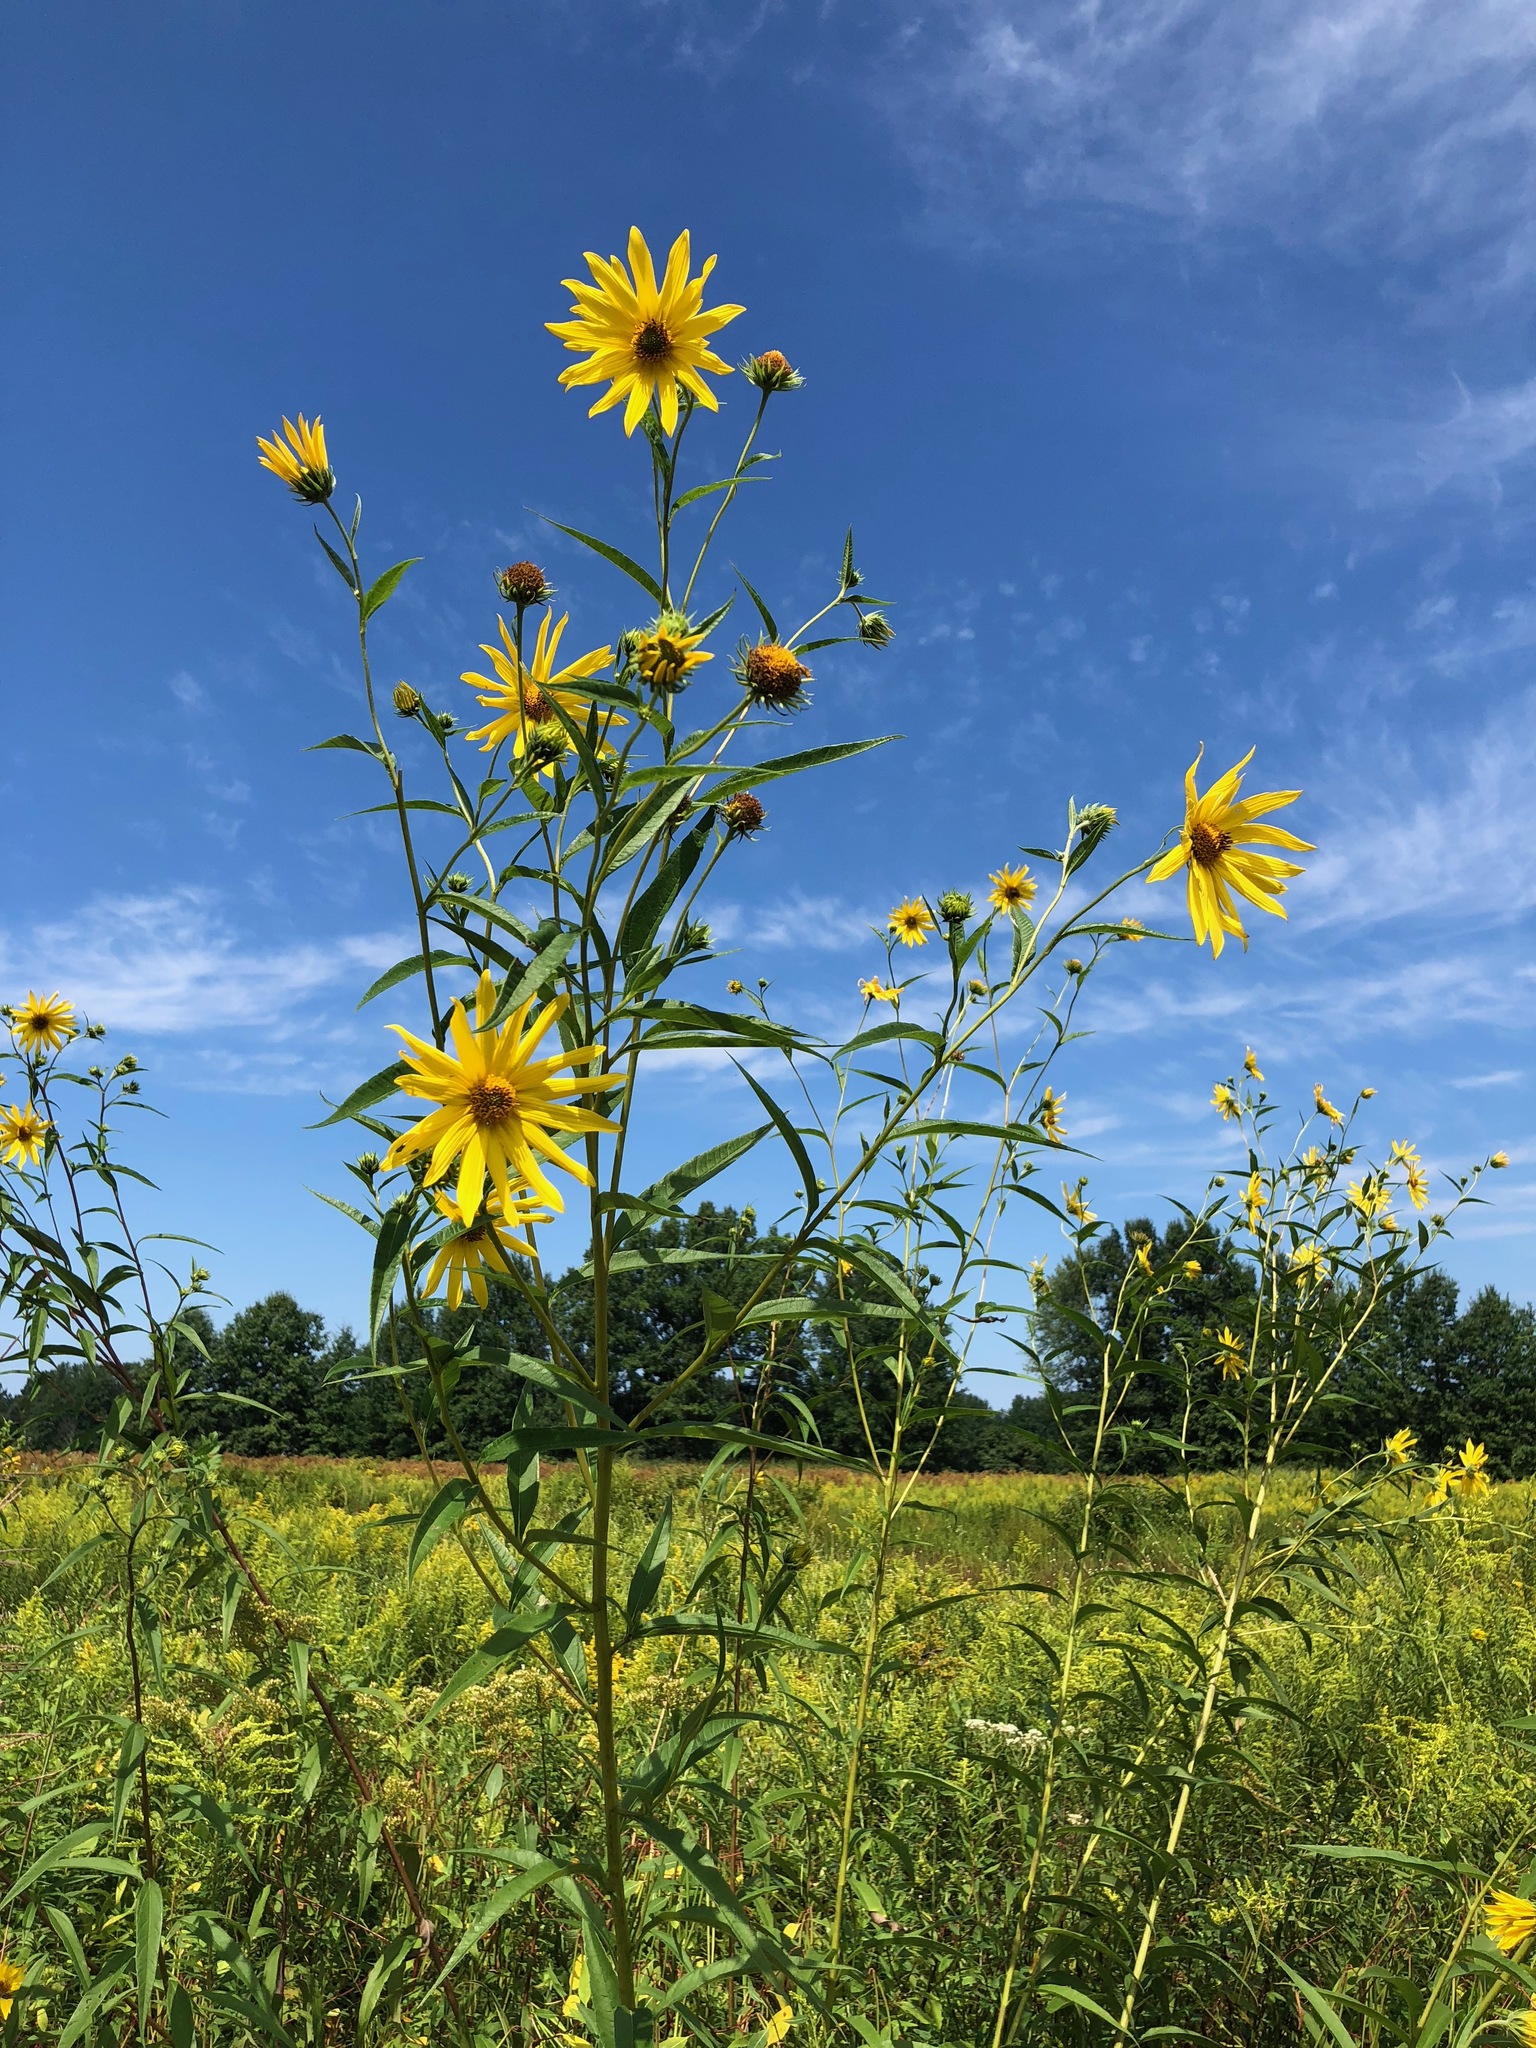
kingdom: Plantae
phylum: Tracheophyta
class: Magnoliopsida
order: Asterales
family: Asteraceae
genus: Helianthus
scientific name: Helianthus grosseserratus
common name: Sawtooth sunflower
